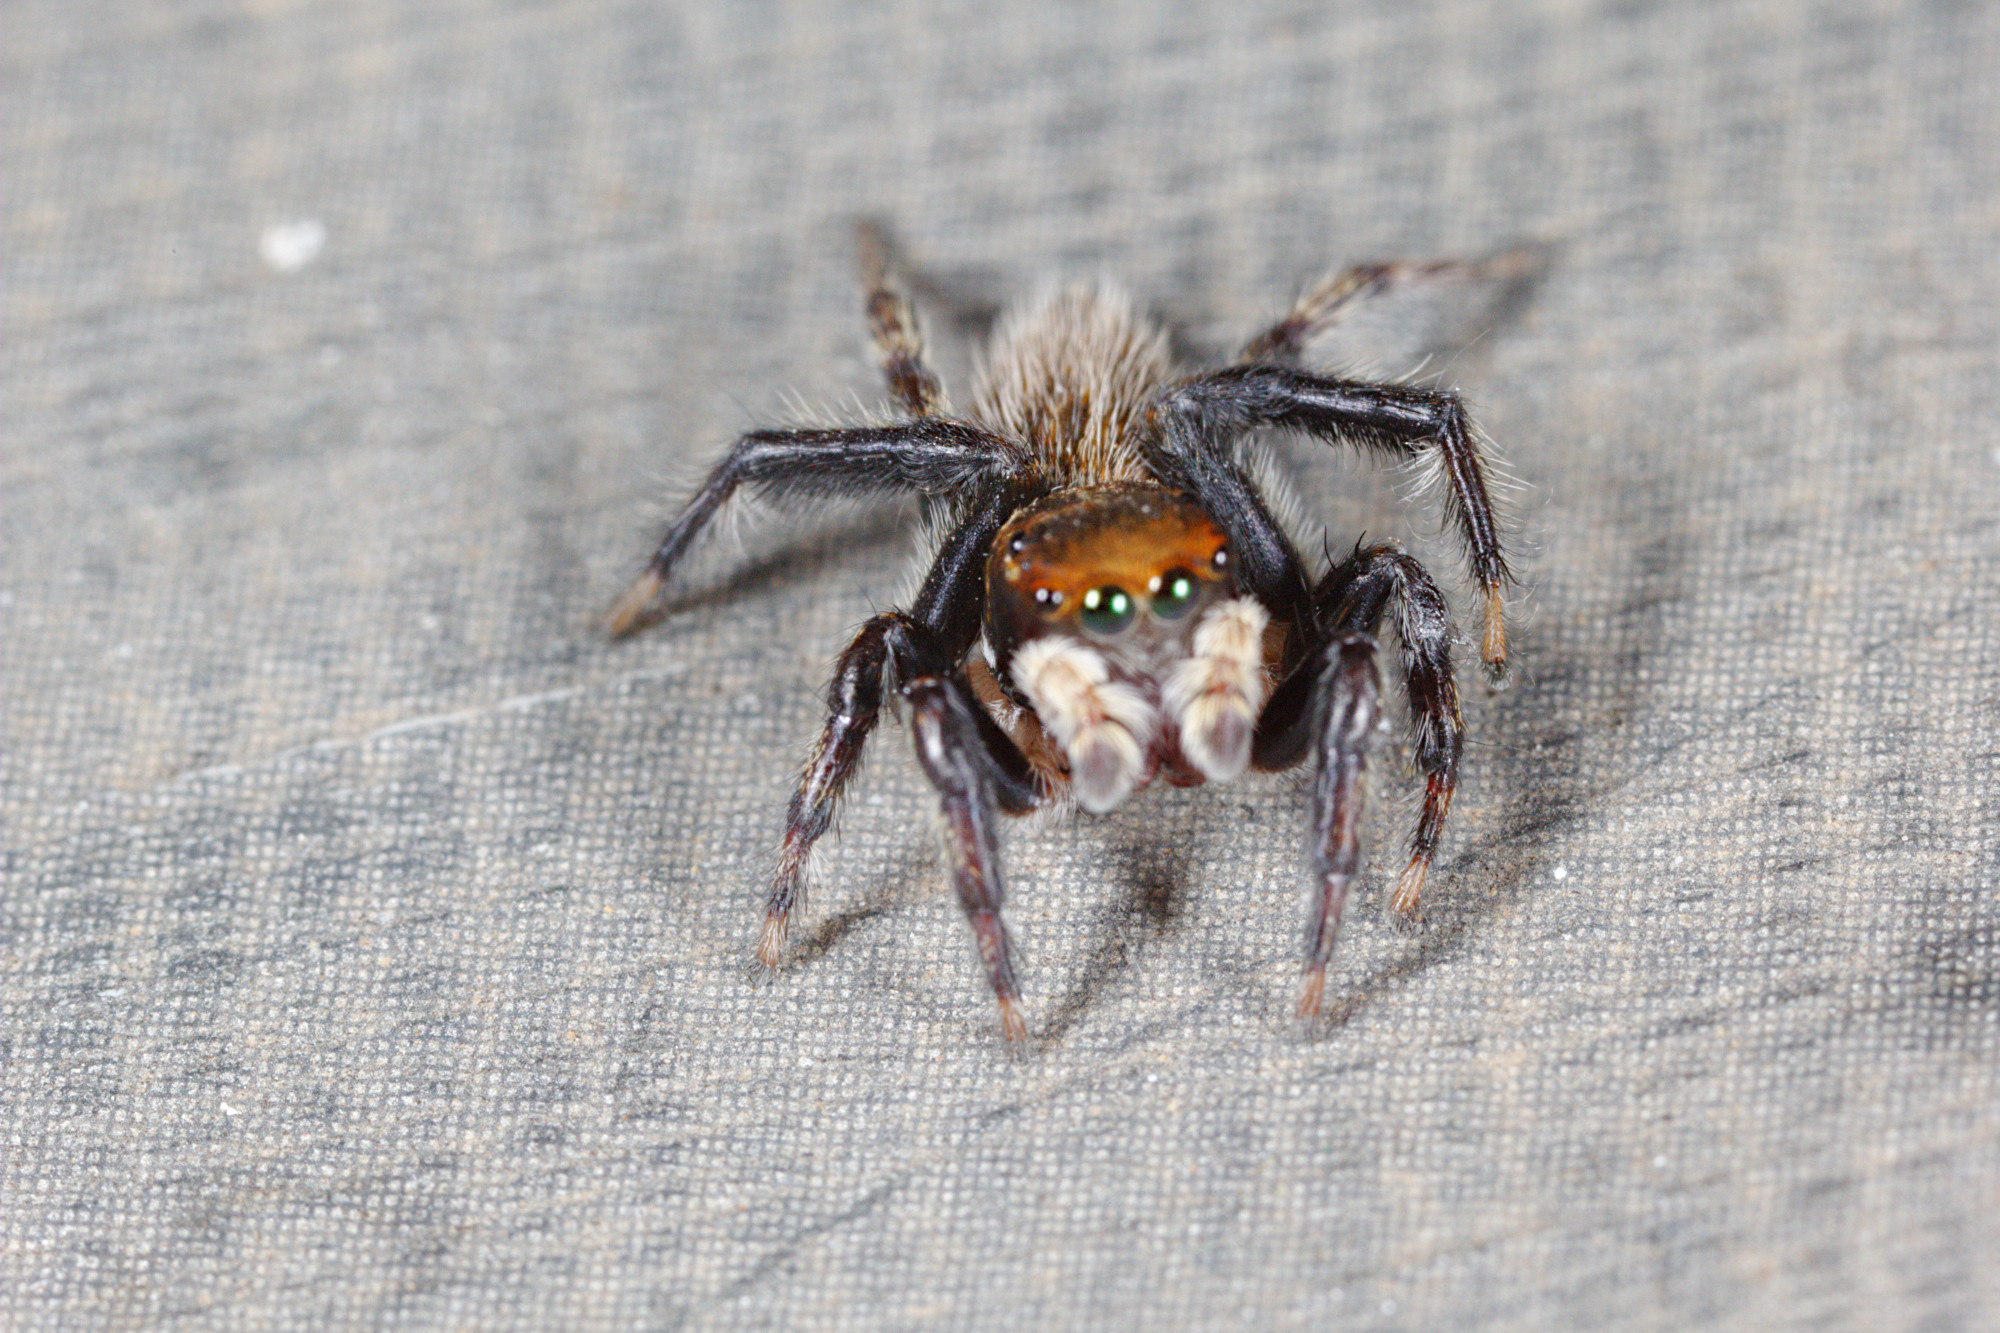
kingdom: Animalia
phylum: Arthropoda
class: Arachnida
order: Araneae
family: Salticidae
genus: Maratus
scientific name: Maratus griseus
